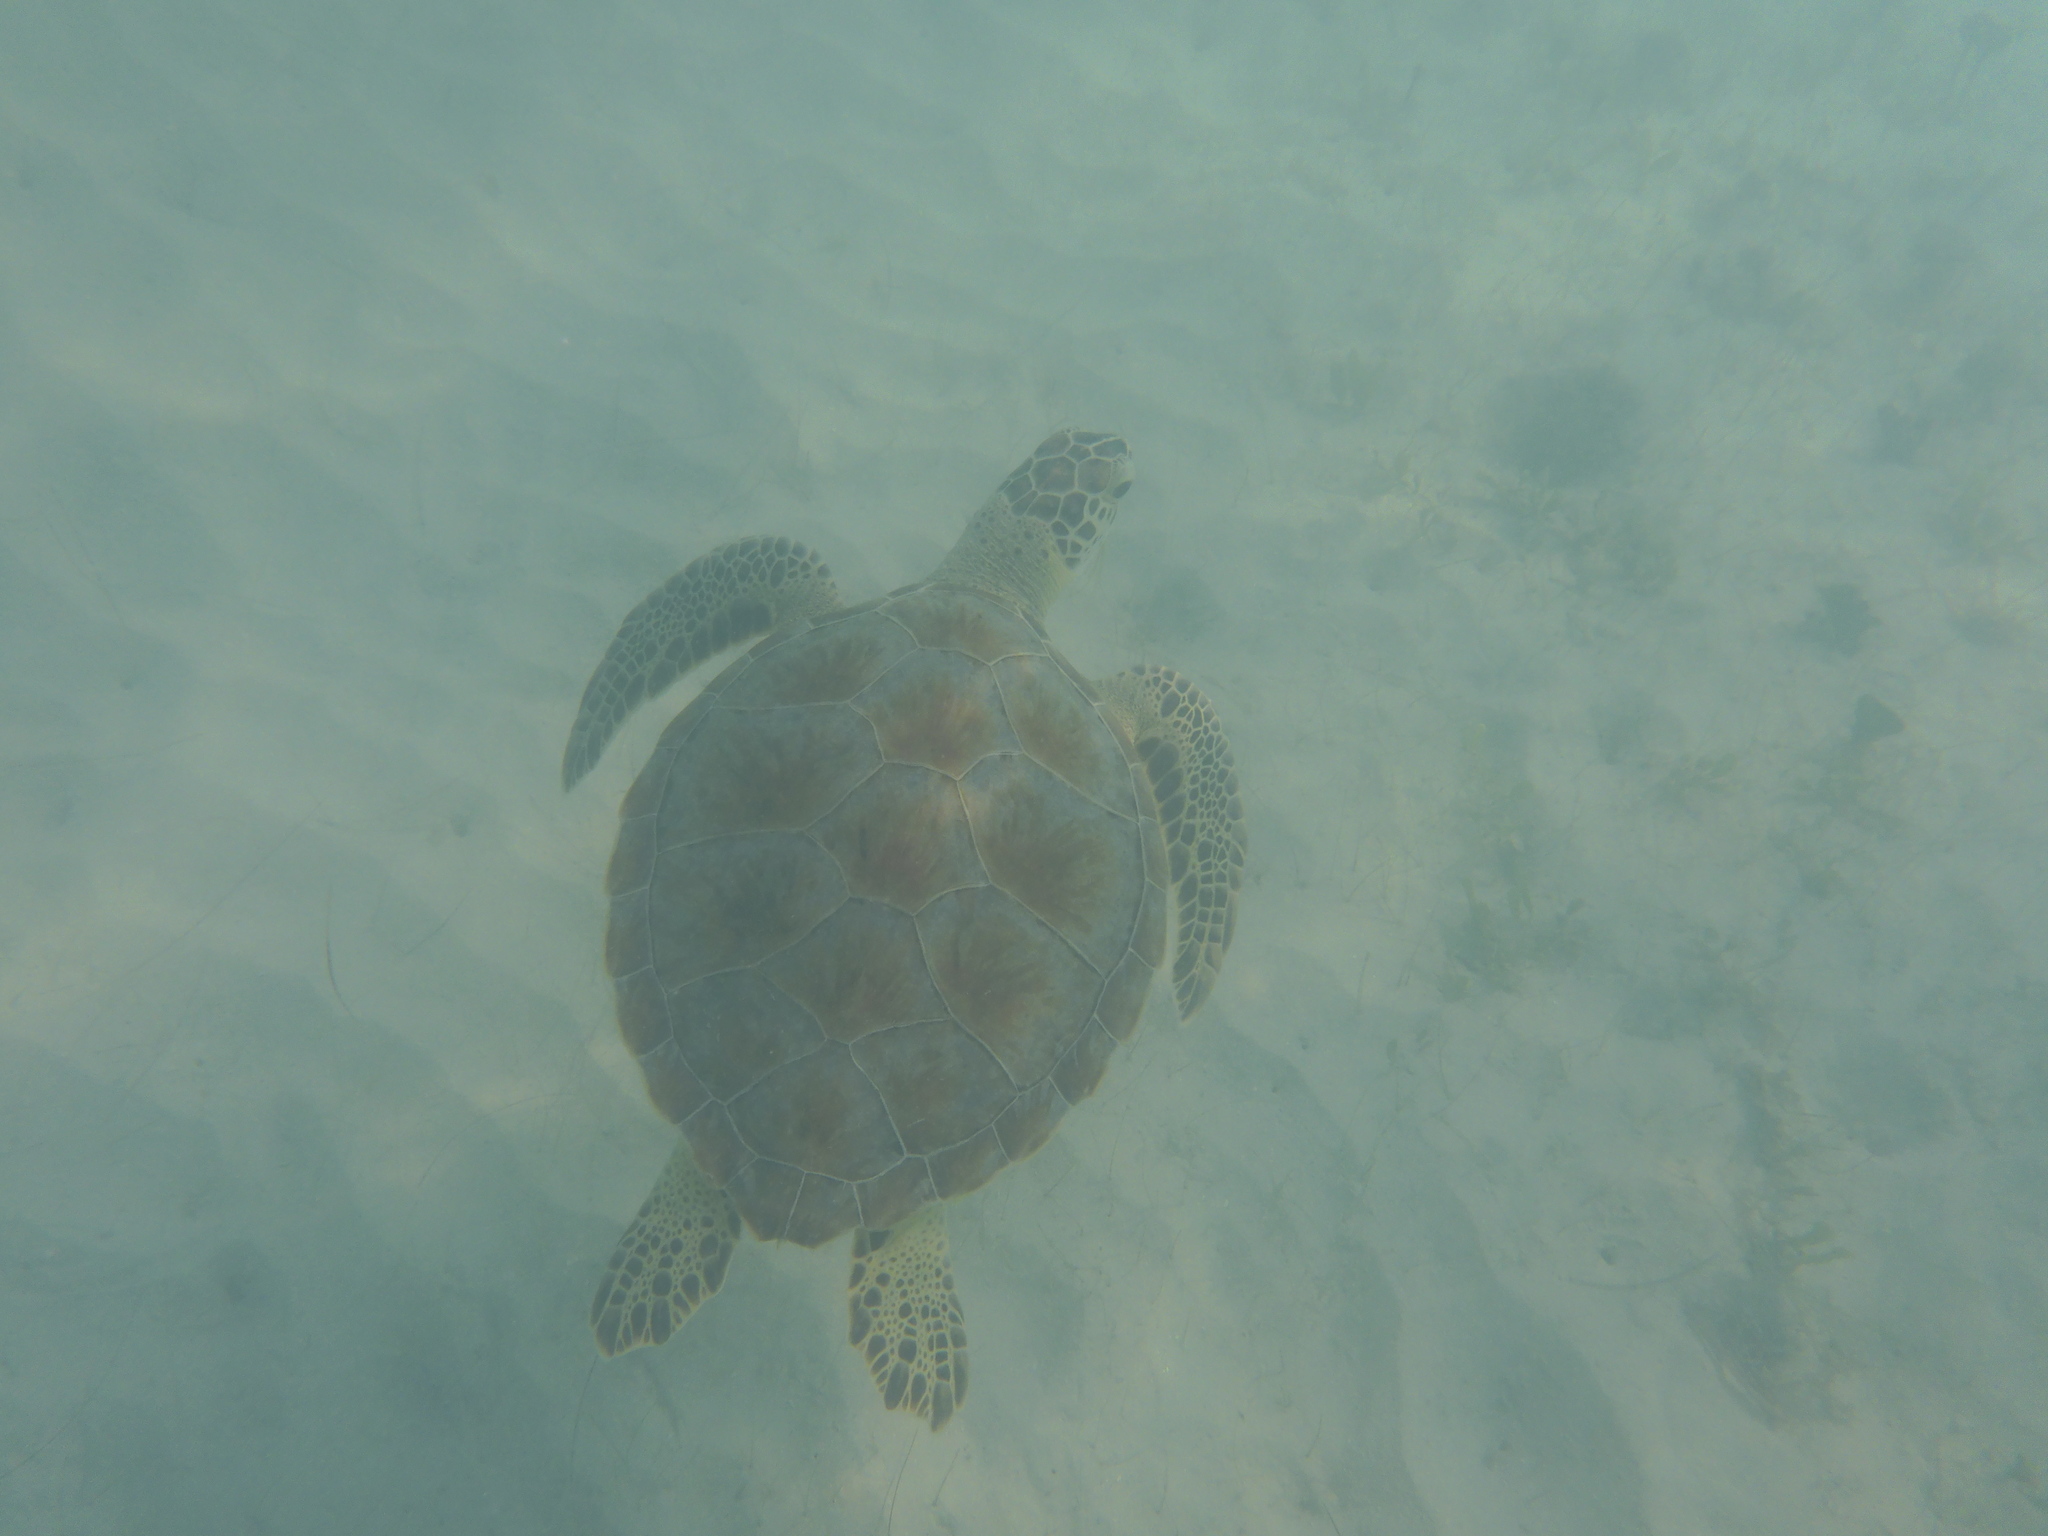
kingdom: Animalia
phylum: Chordata
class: Testudines
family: Cheloniidae
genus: Chelonia
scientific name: Chelonia mydas
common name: Green turtle
